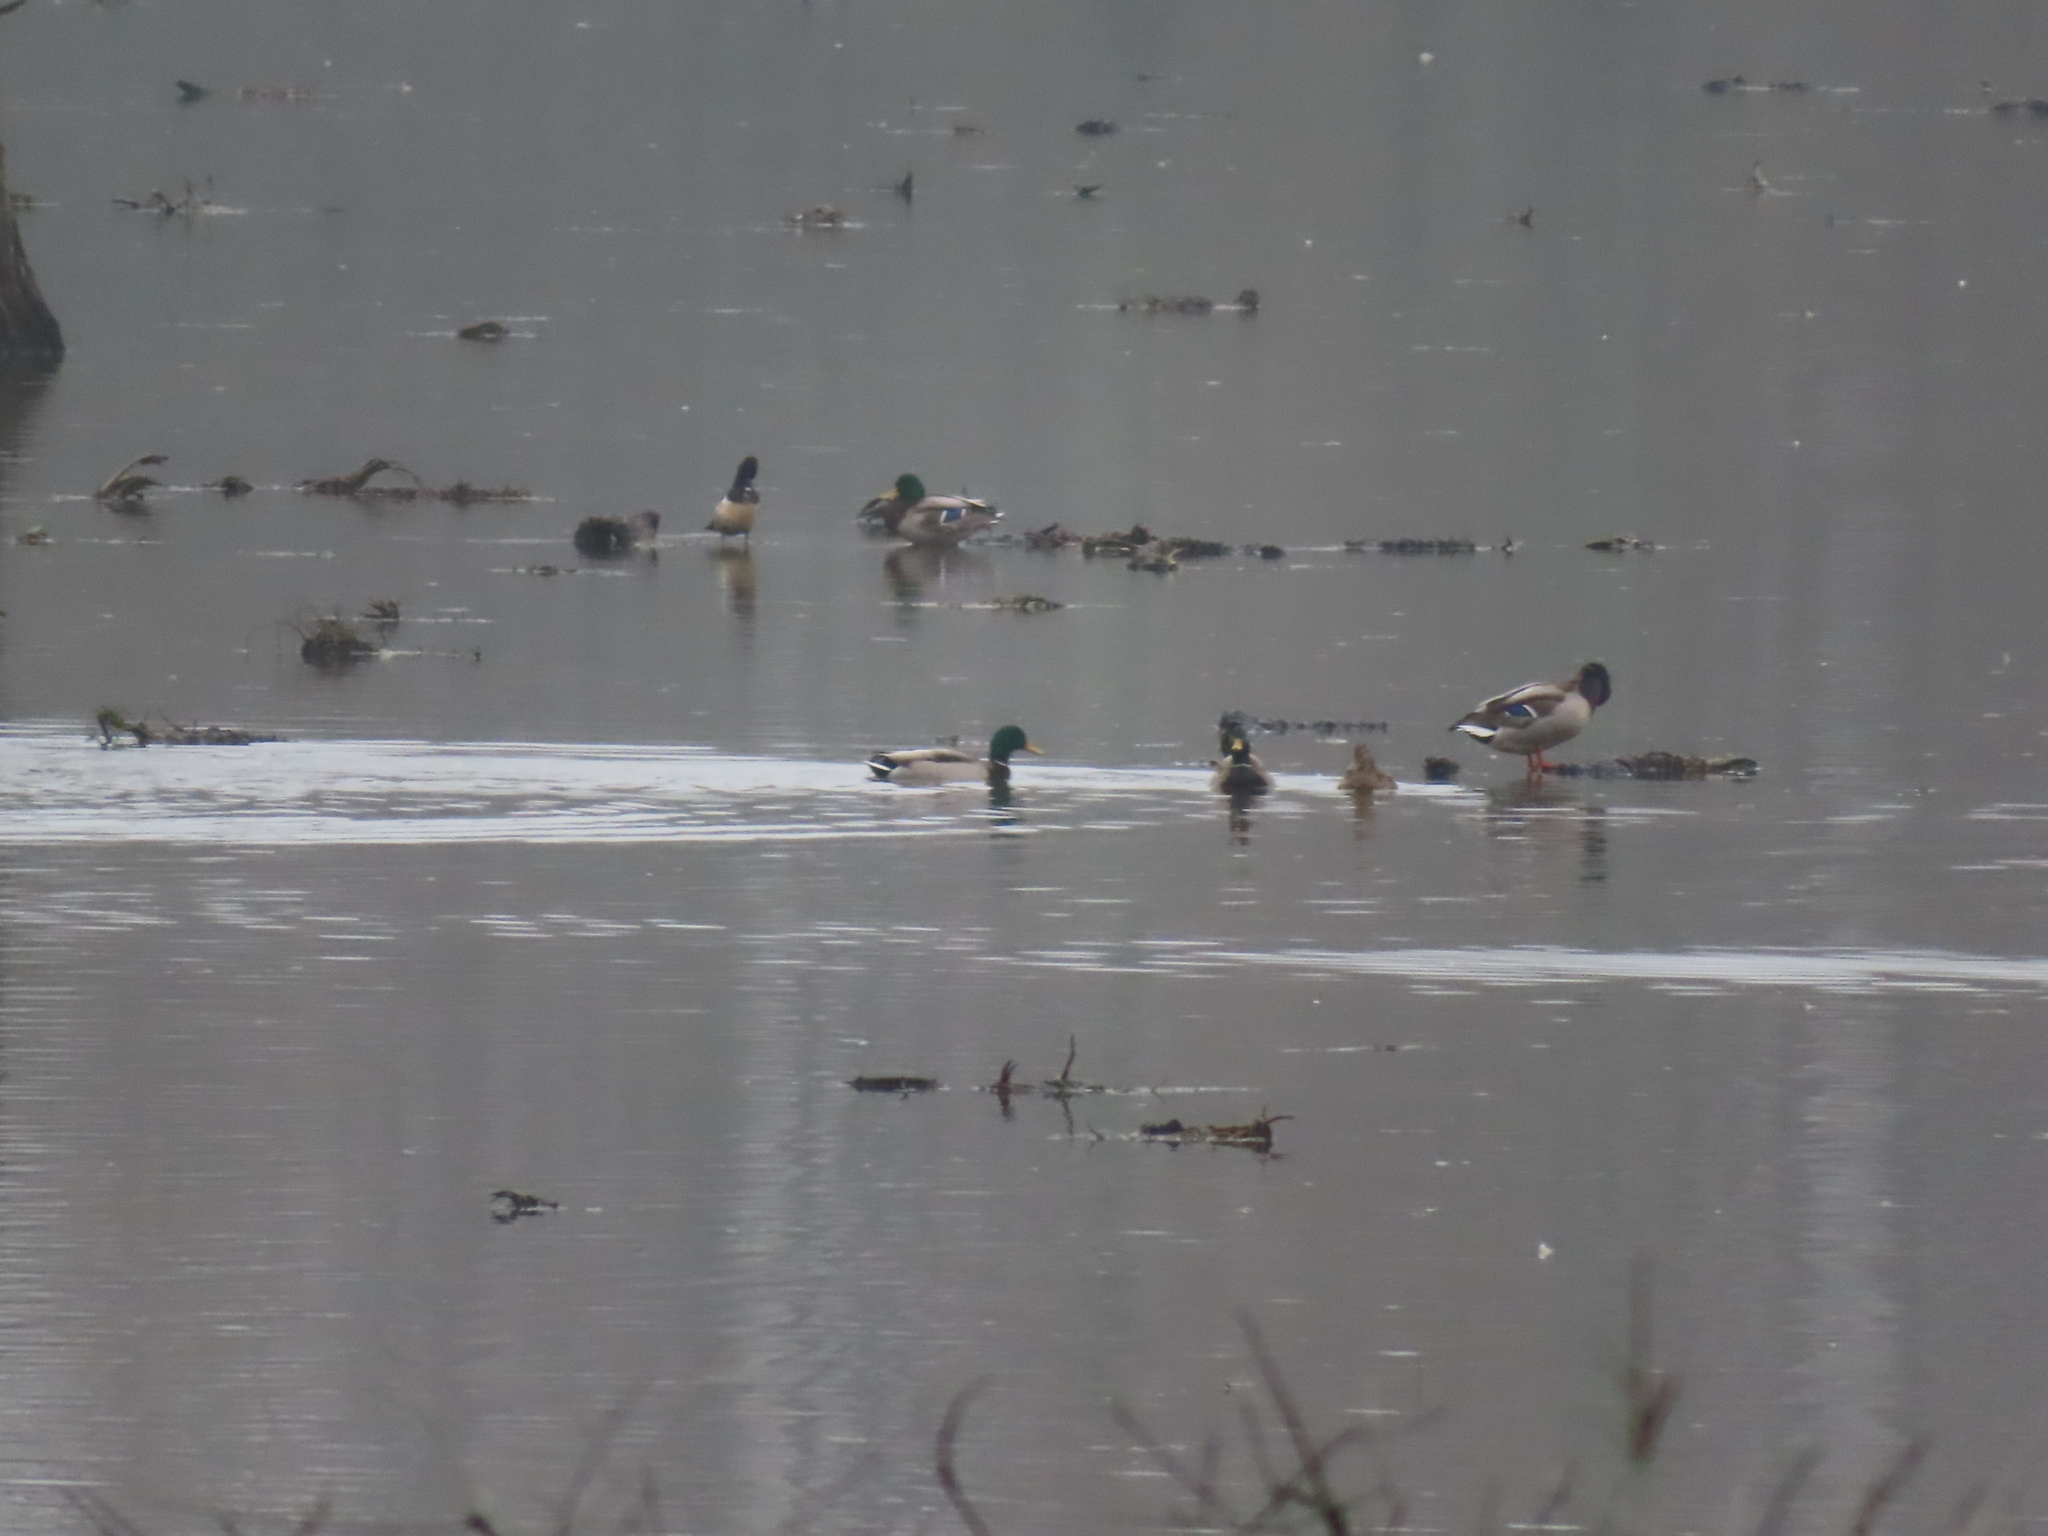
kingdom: Animalia
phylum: Chordata
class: Aves
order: Anseriformes
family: Anatidae
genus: Anas
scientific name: Anas platyrhynchos
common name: Mallard
